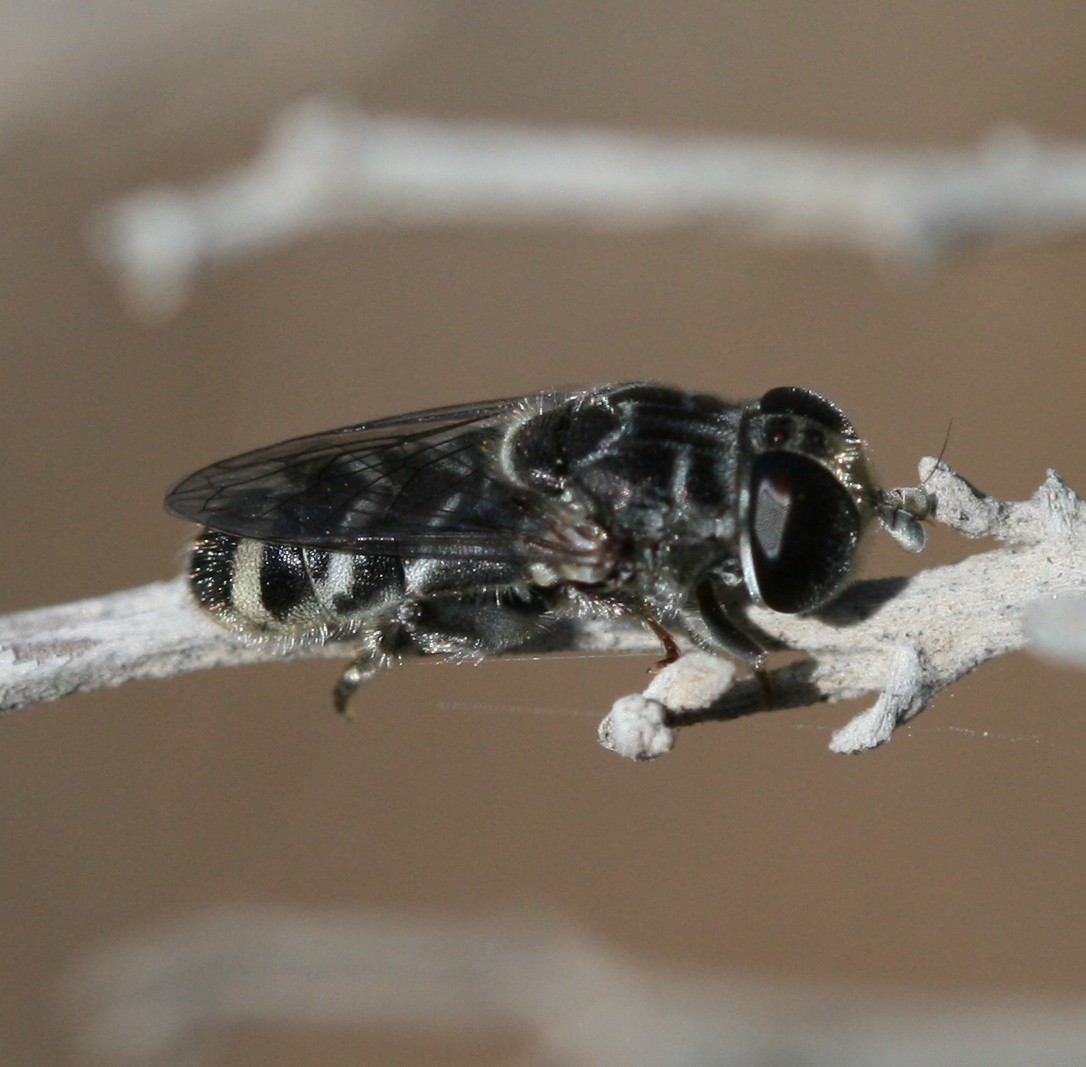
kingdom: Animalia
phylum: Arthropoda
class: Insecta
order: Diptera
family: Syrphidae
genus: Eumerus
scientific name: Eumerus obliquus
